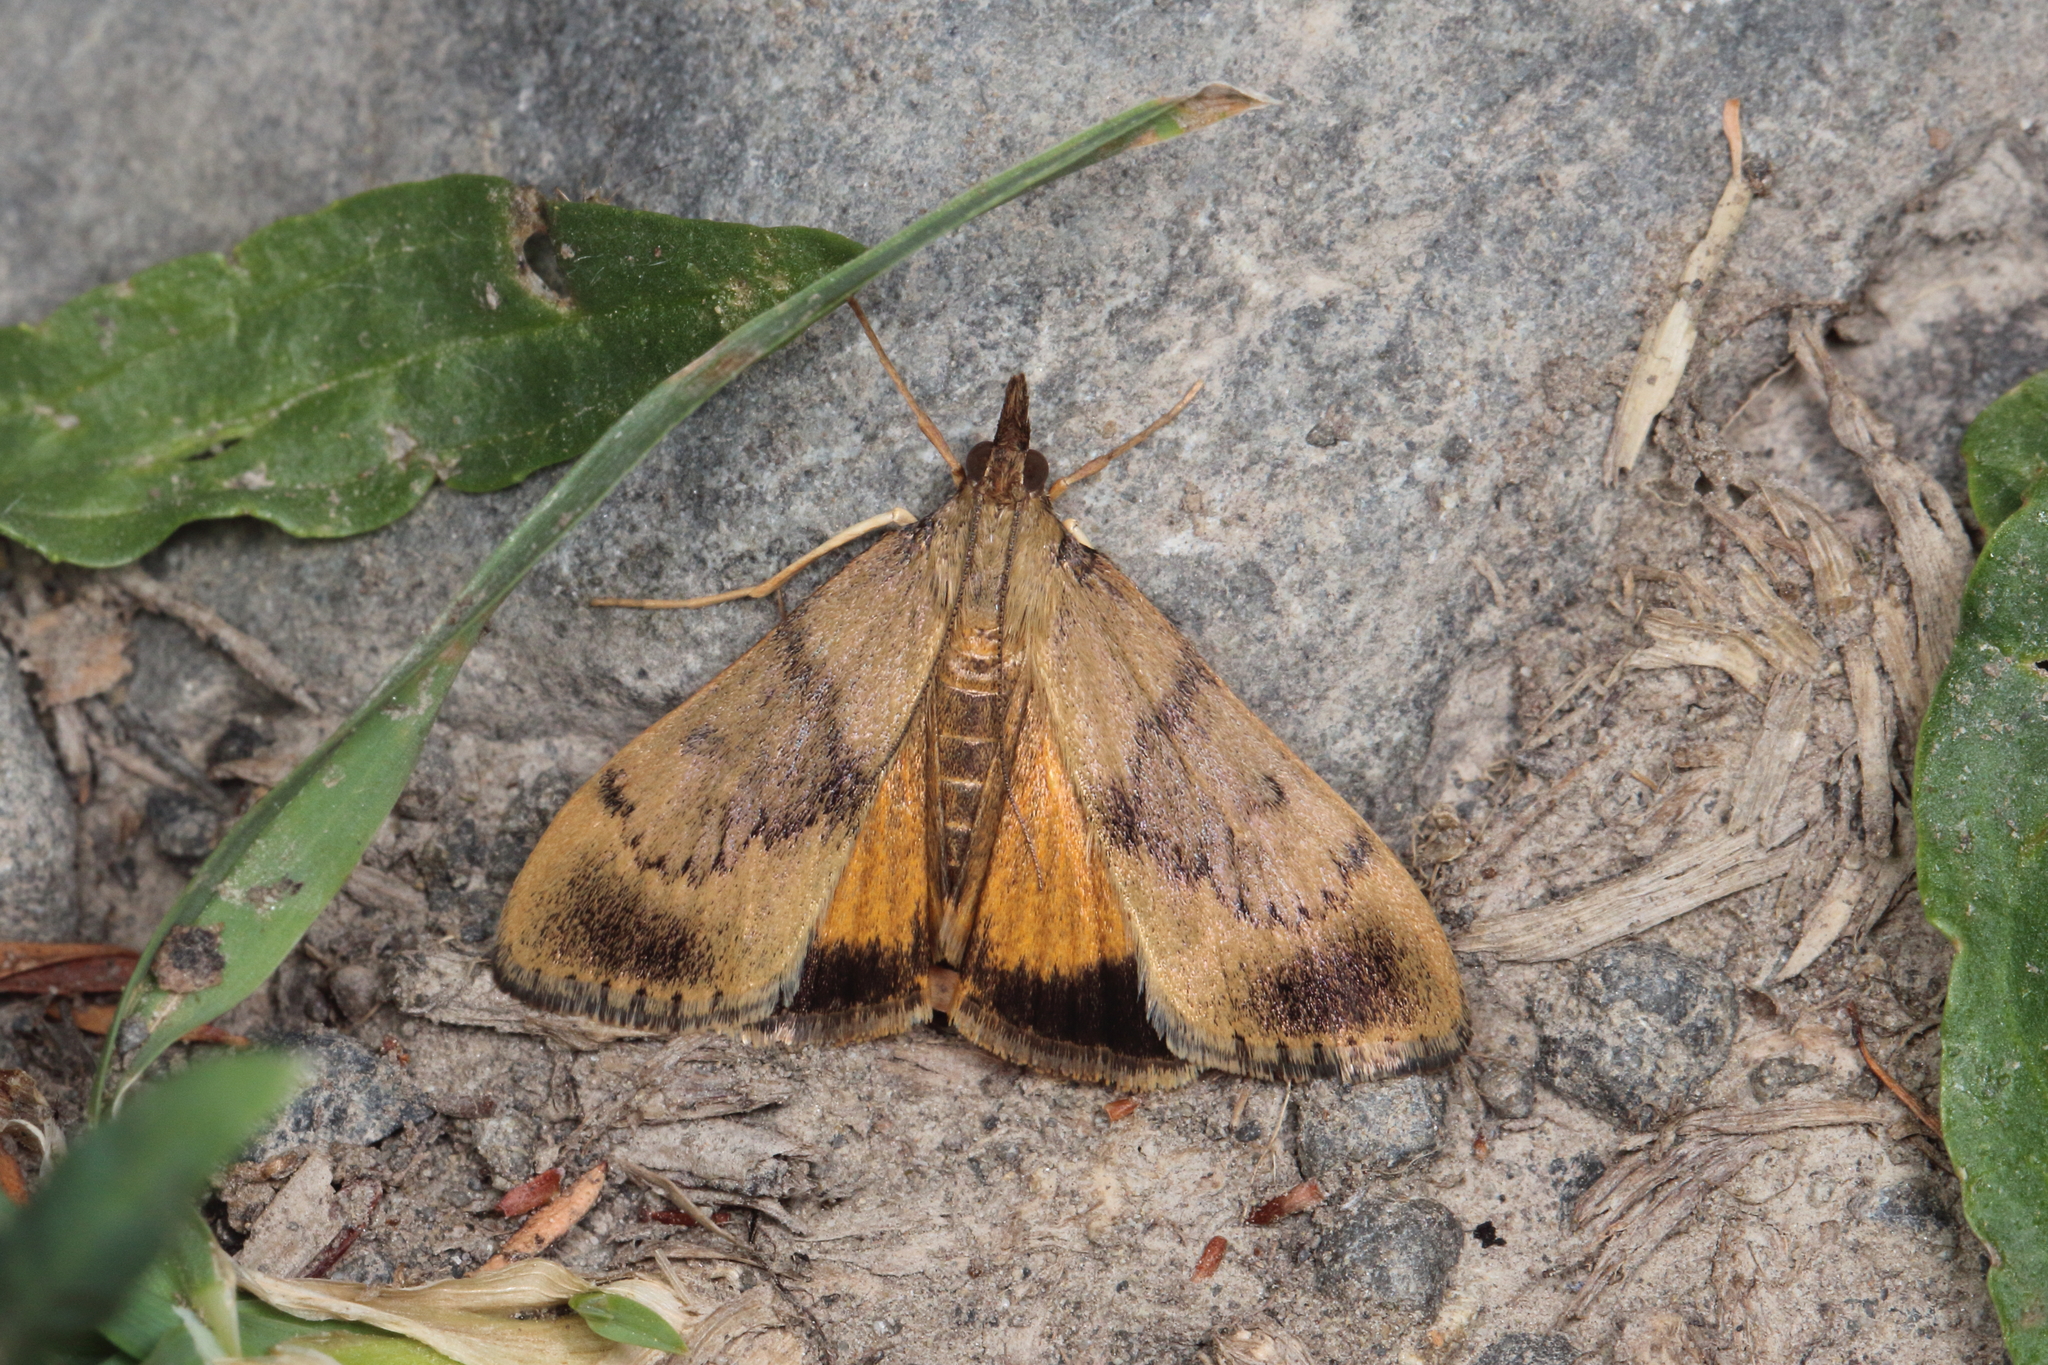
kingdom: Animalia
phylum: Arthropoda
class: Insecta
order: Lepidoptera
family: Crambidae
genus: Uresiphita
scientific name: Uresiphita
